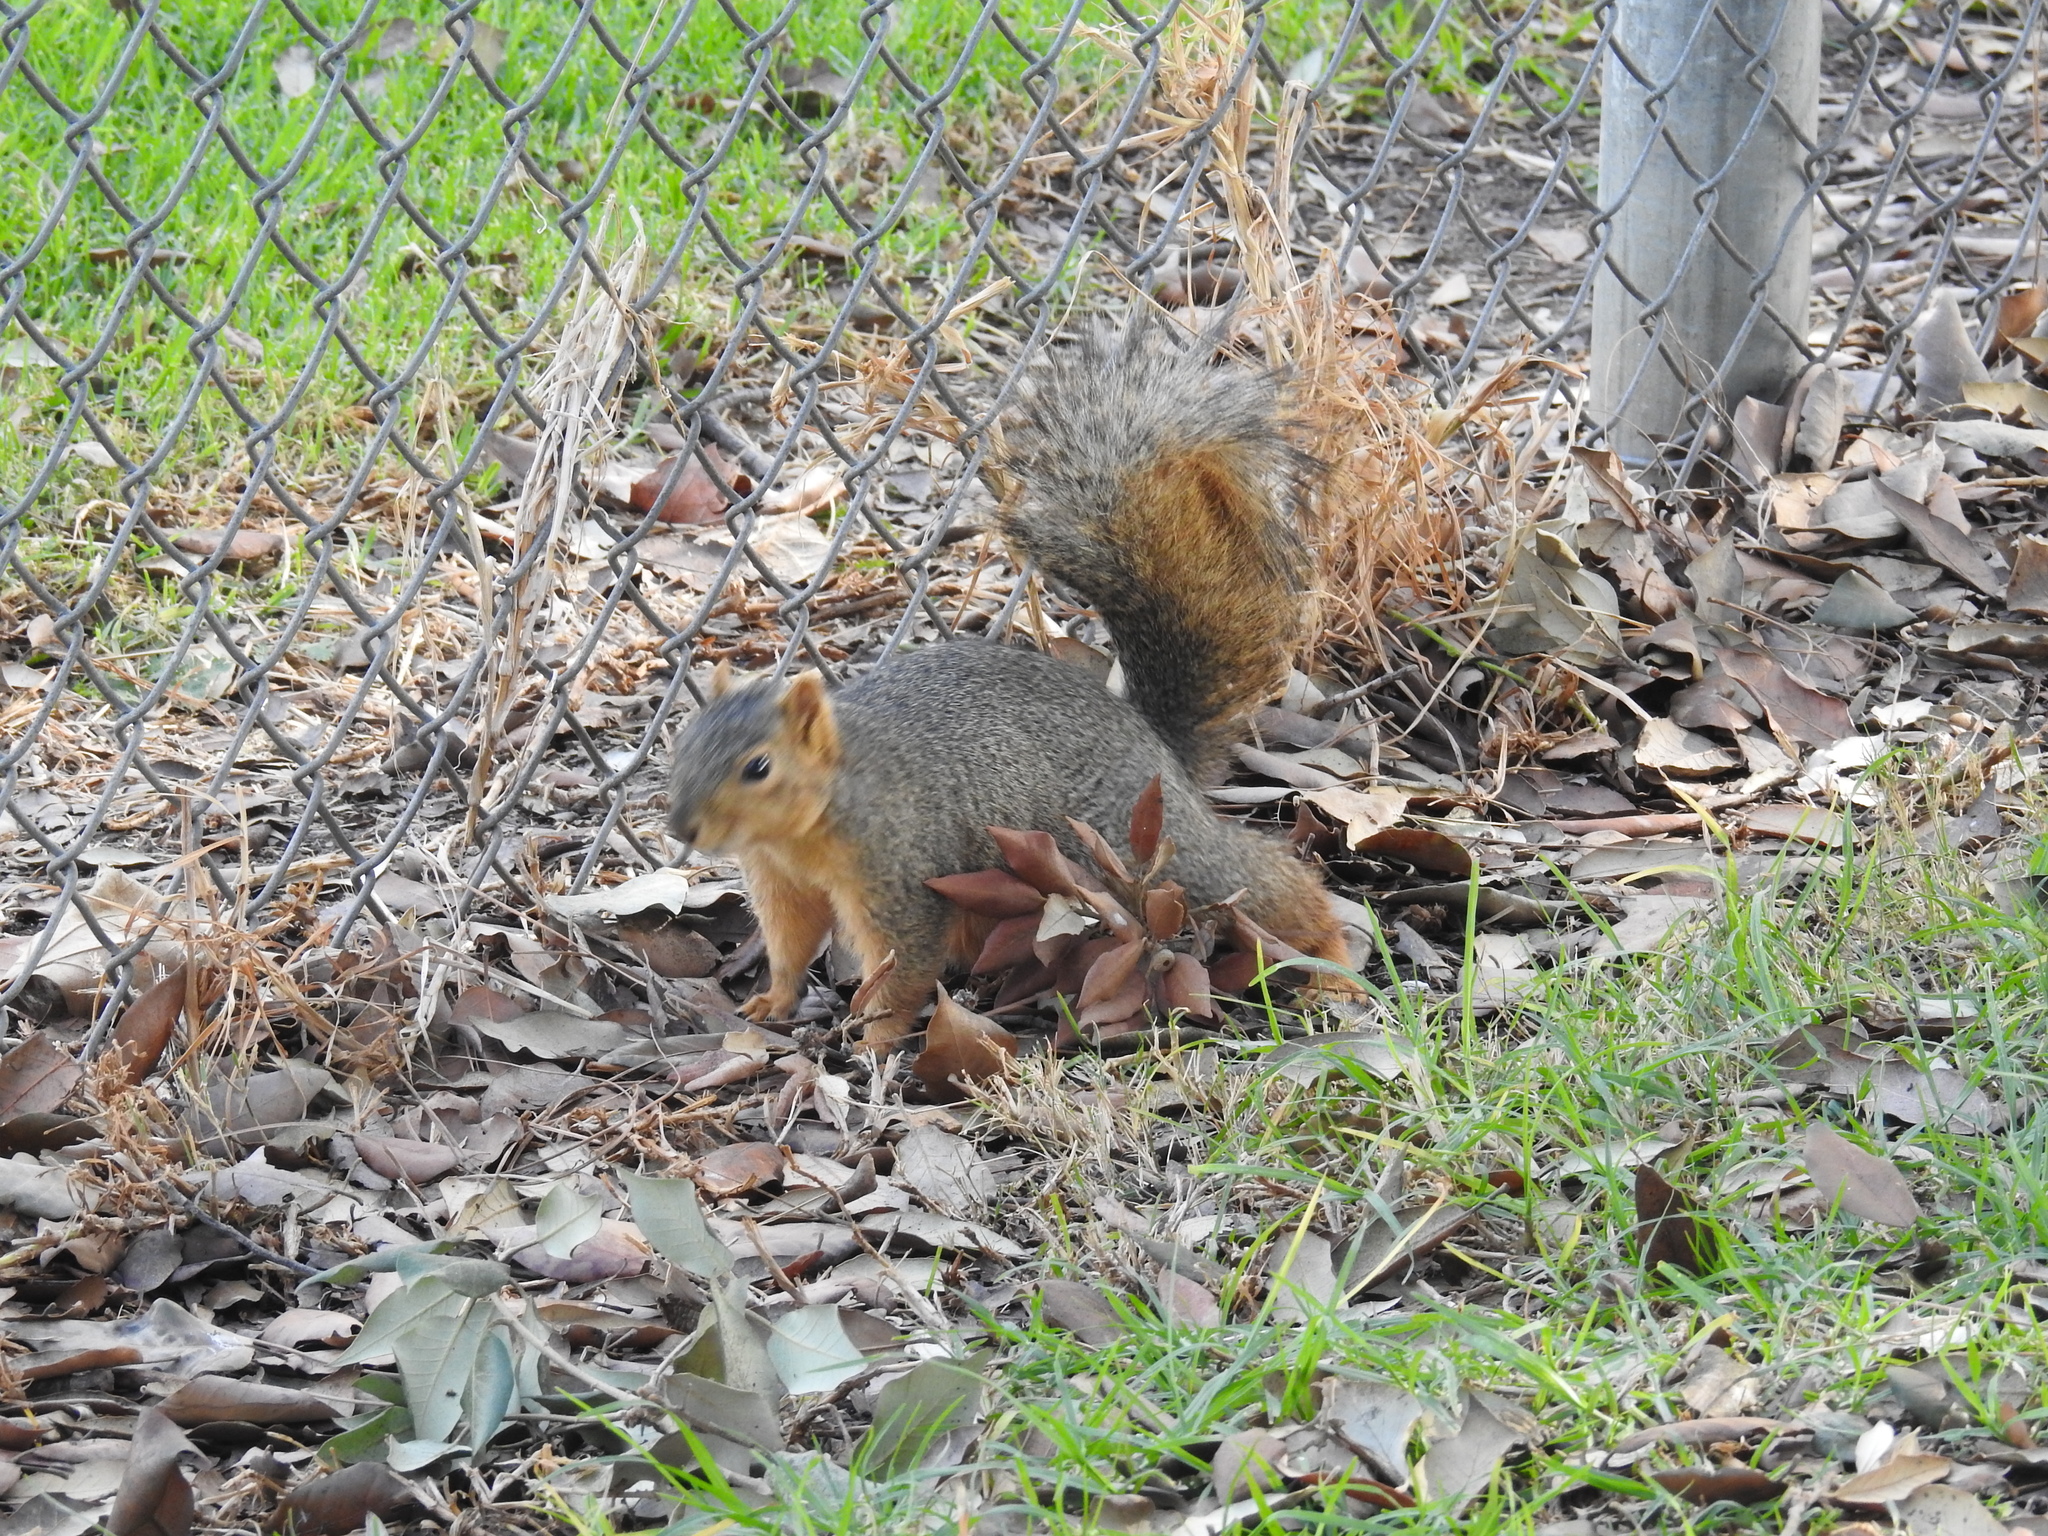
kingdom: Animalia
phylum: Chordata
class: Mammalia
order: Rodentia
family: Sciuridae
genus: Sciurus
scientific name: Sciurus niger
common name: Fox squirrel
